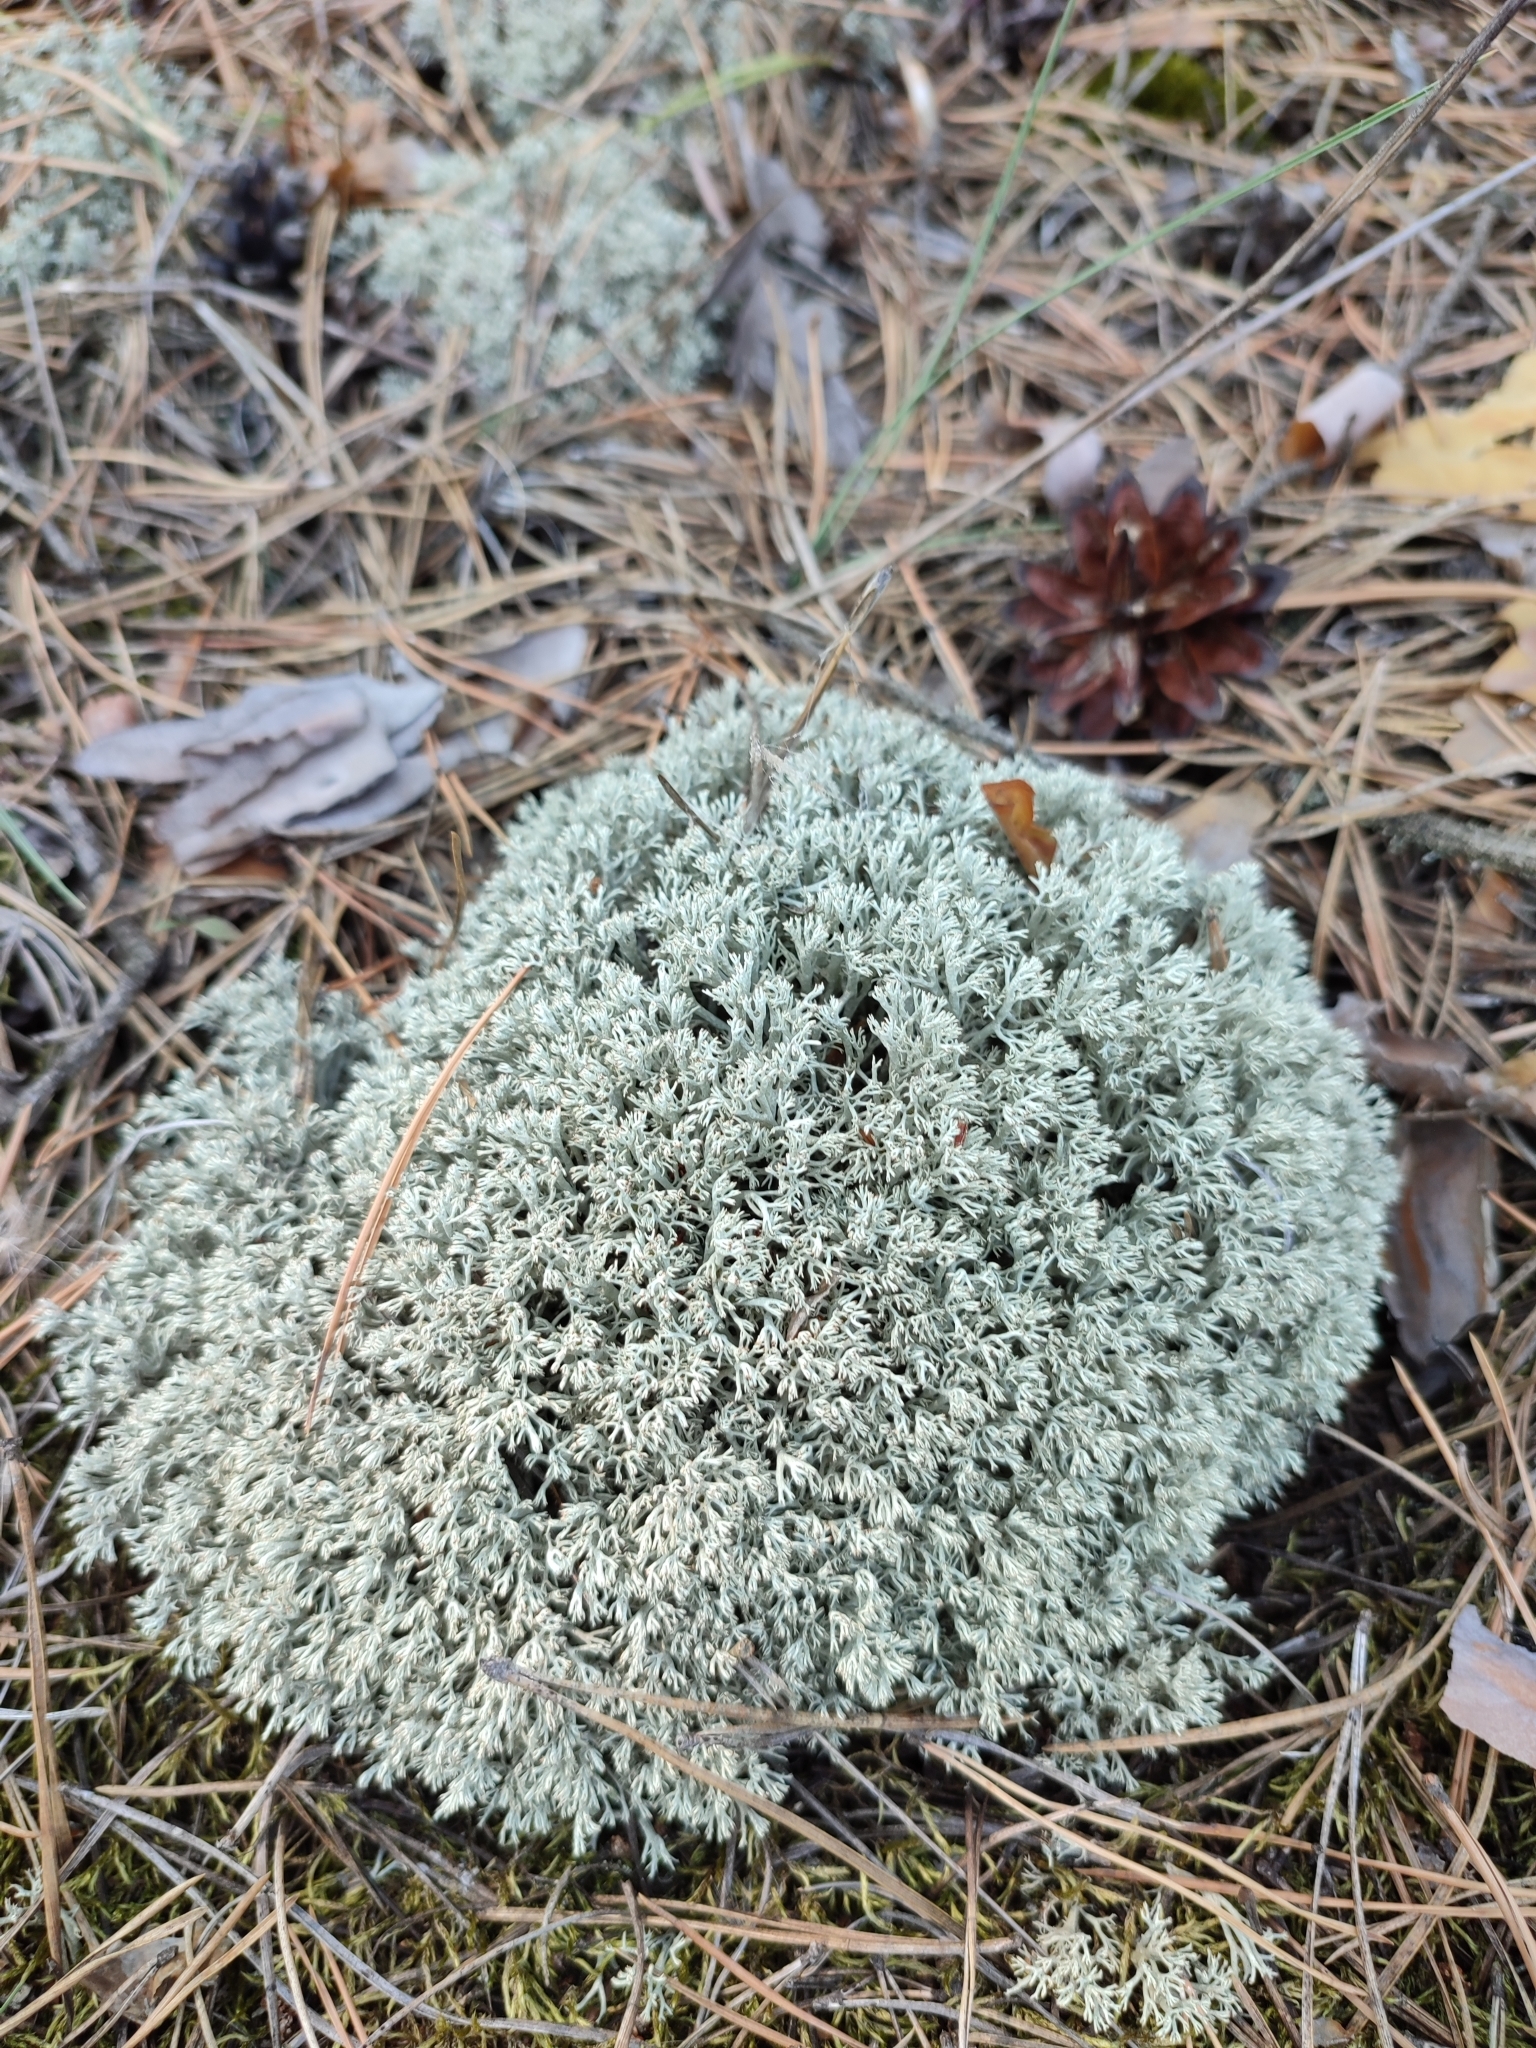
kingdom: Fungi
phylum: Ascomycota
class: Lecanoromycetes
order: Lecanorales
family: Cladoniaceae
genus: Cladonia
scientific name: Cladonia mitis
